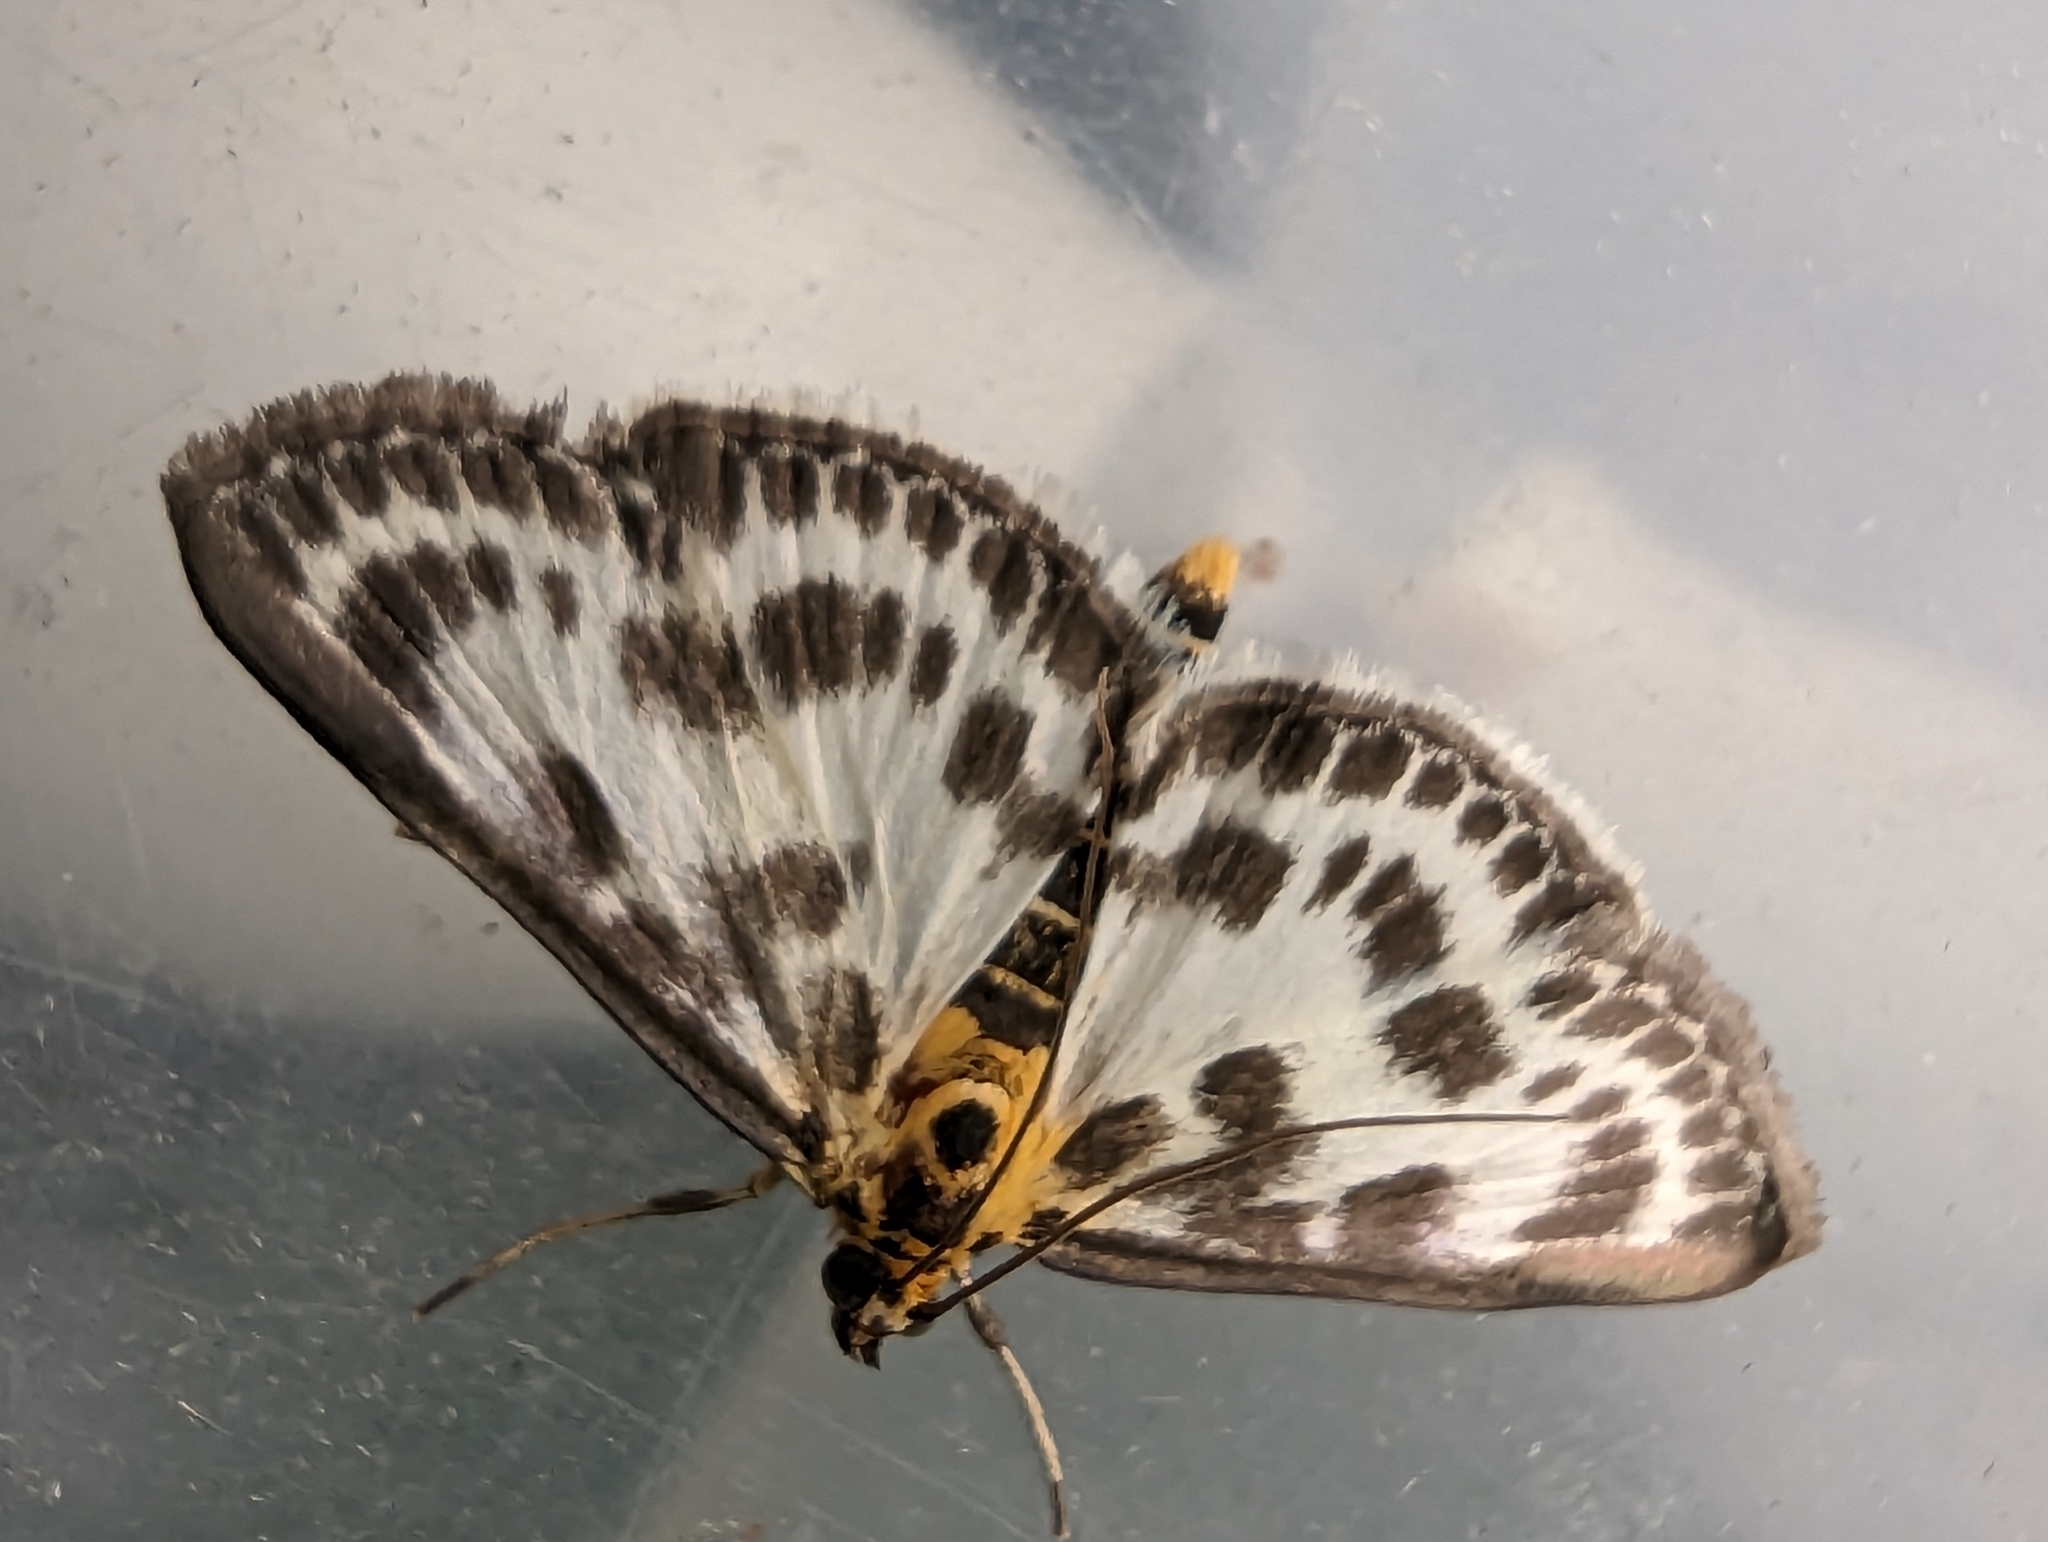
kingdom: Animalia
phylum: Arthropoda
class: Insecta
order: Lepidoptera
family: Crambidae
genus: Anania
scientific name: Anania hortulata
